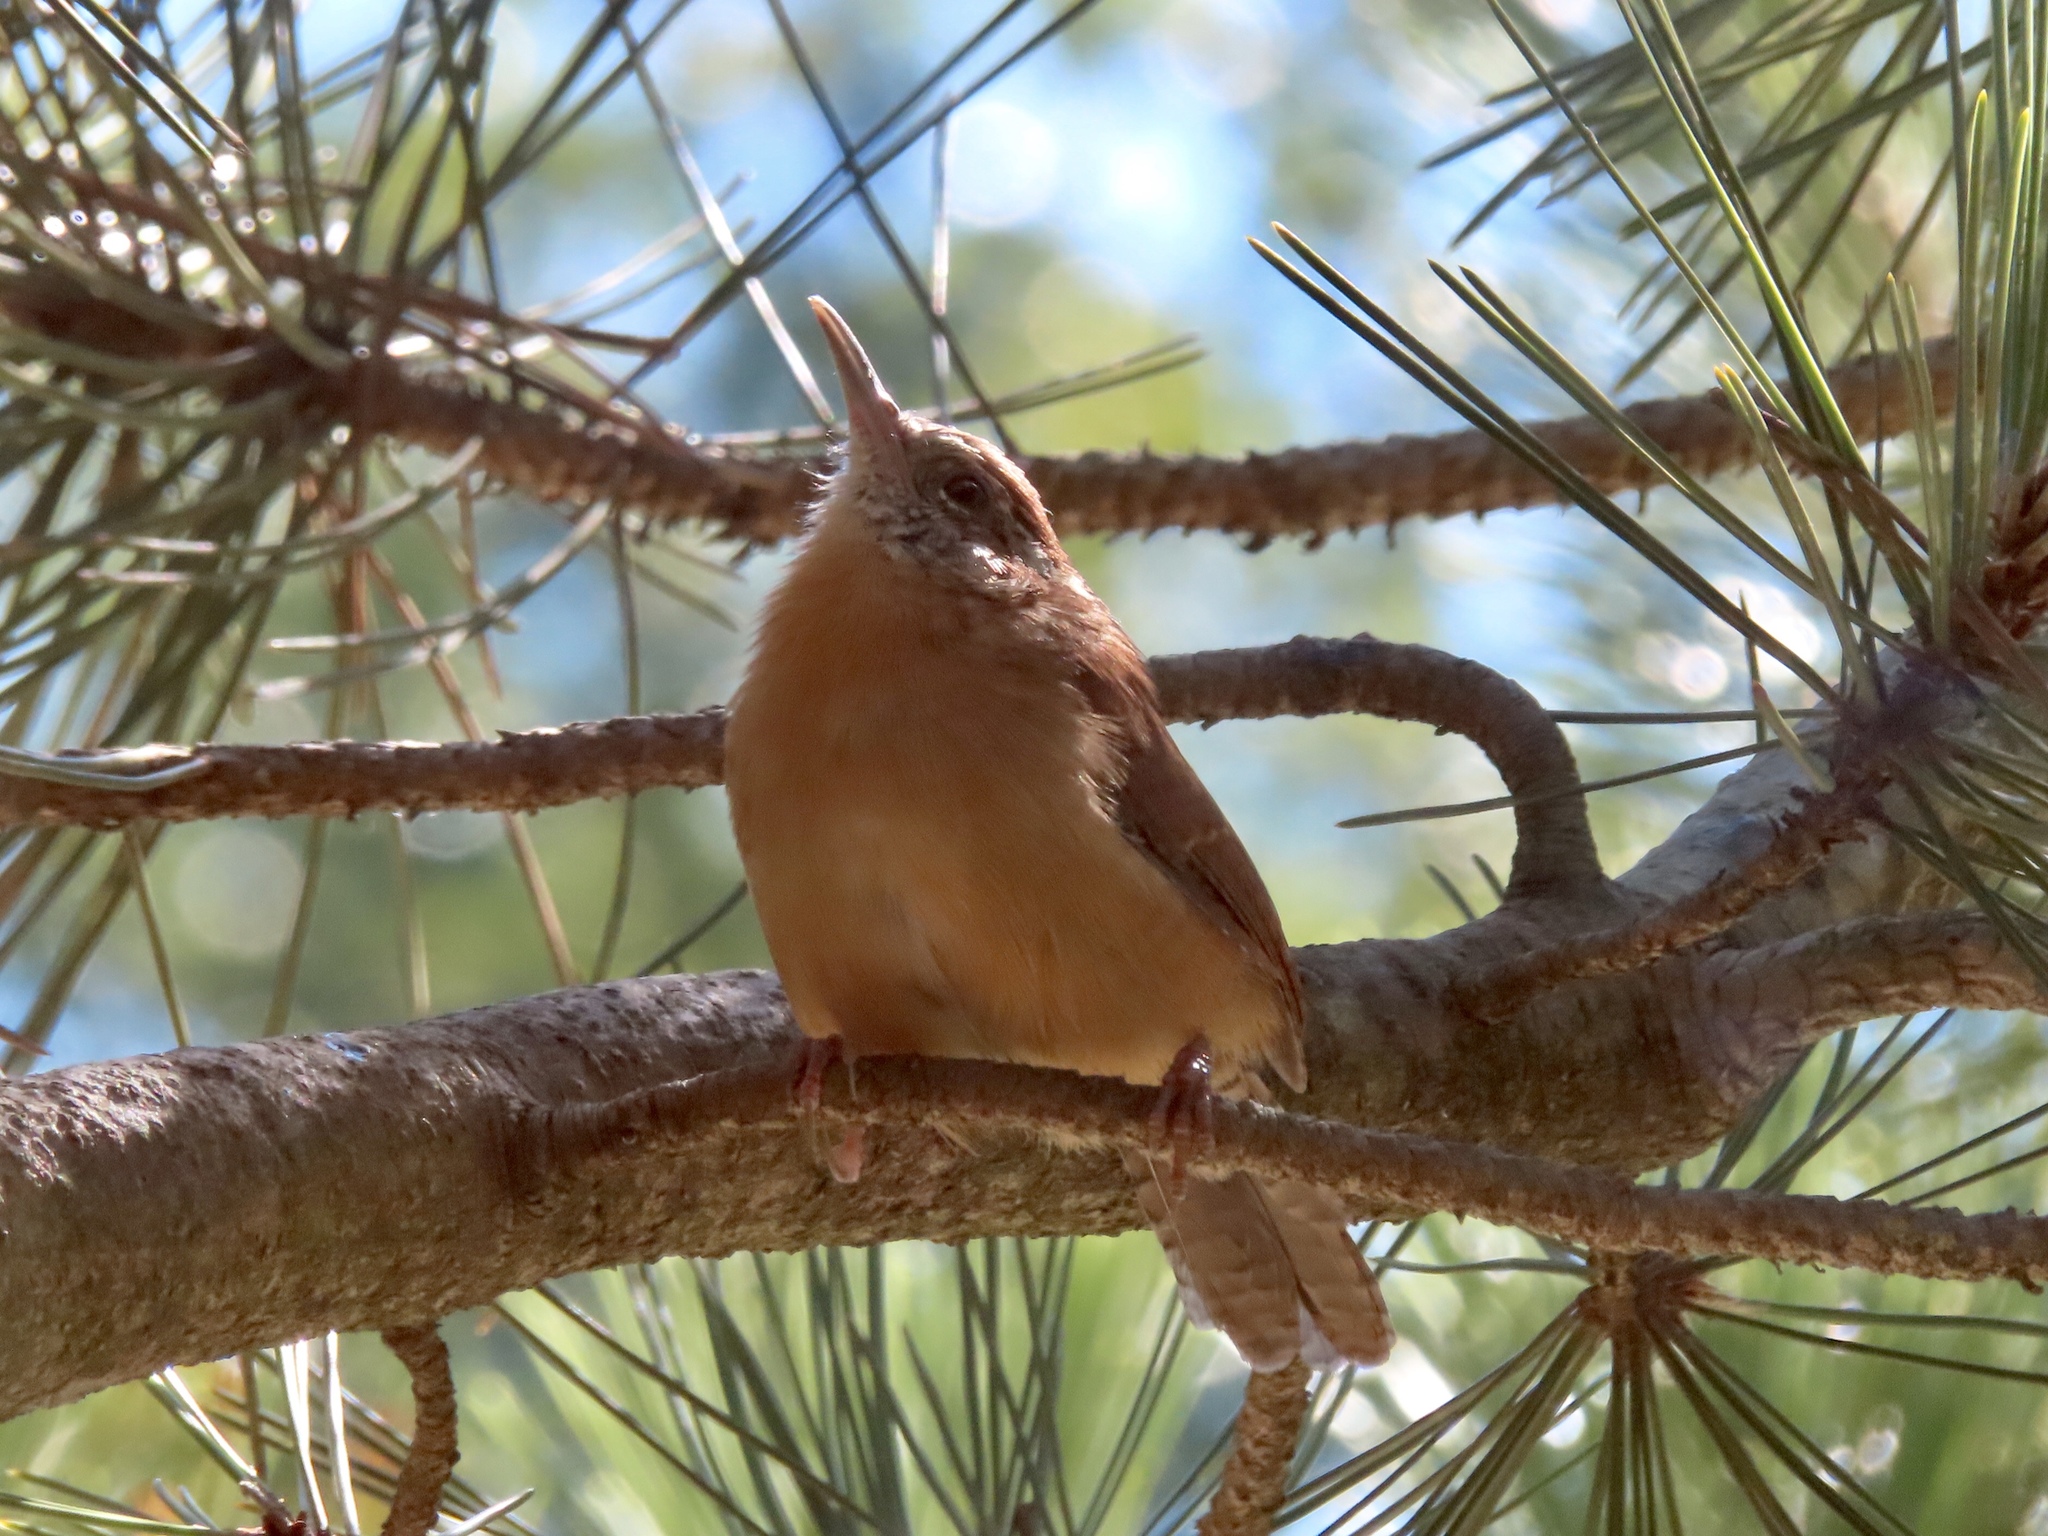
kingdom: Animalia
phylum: Chordata
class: Aves
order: Passeriformes
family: Troglodytidae
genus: Thryothorus
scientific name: Thryothorus ludovicianus
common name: Carolina wren
